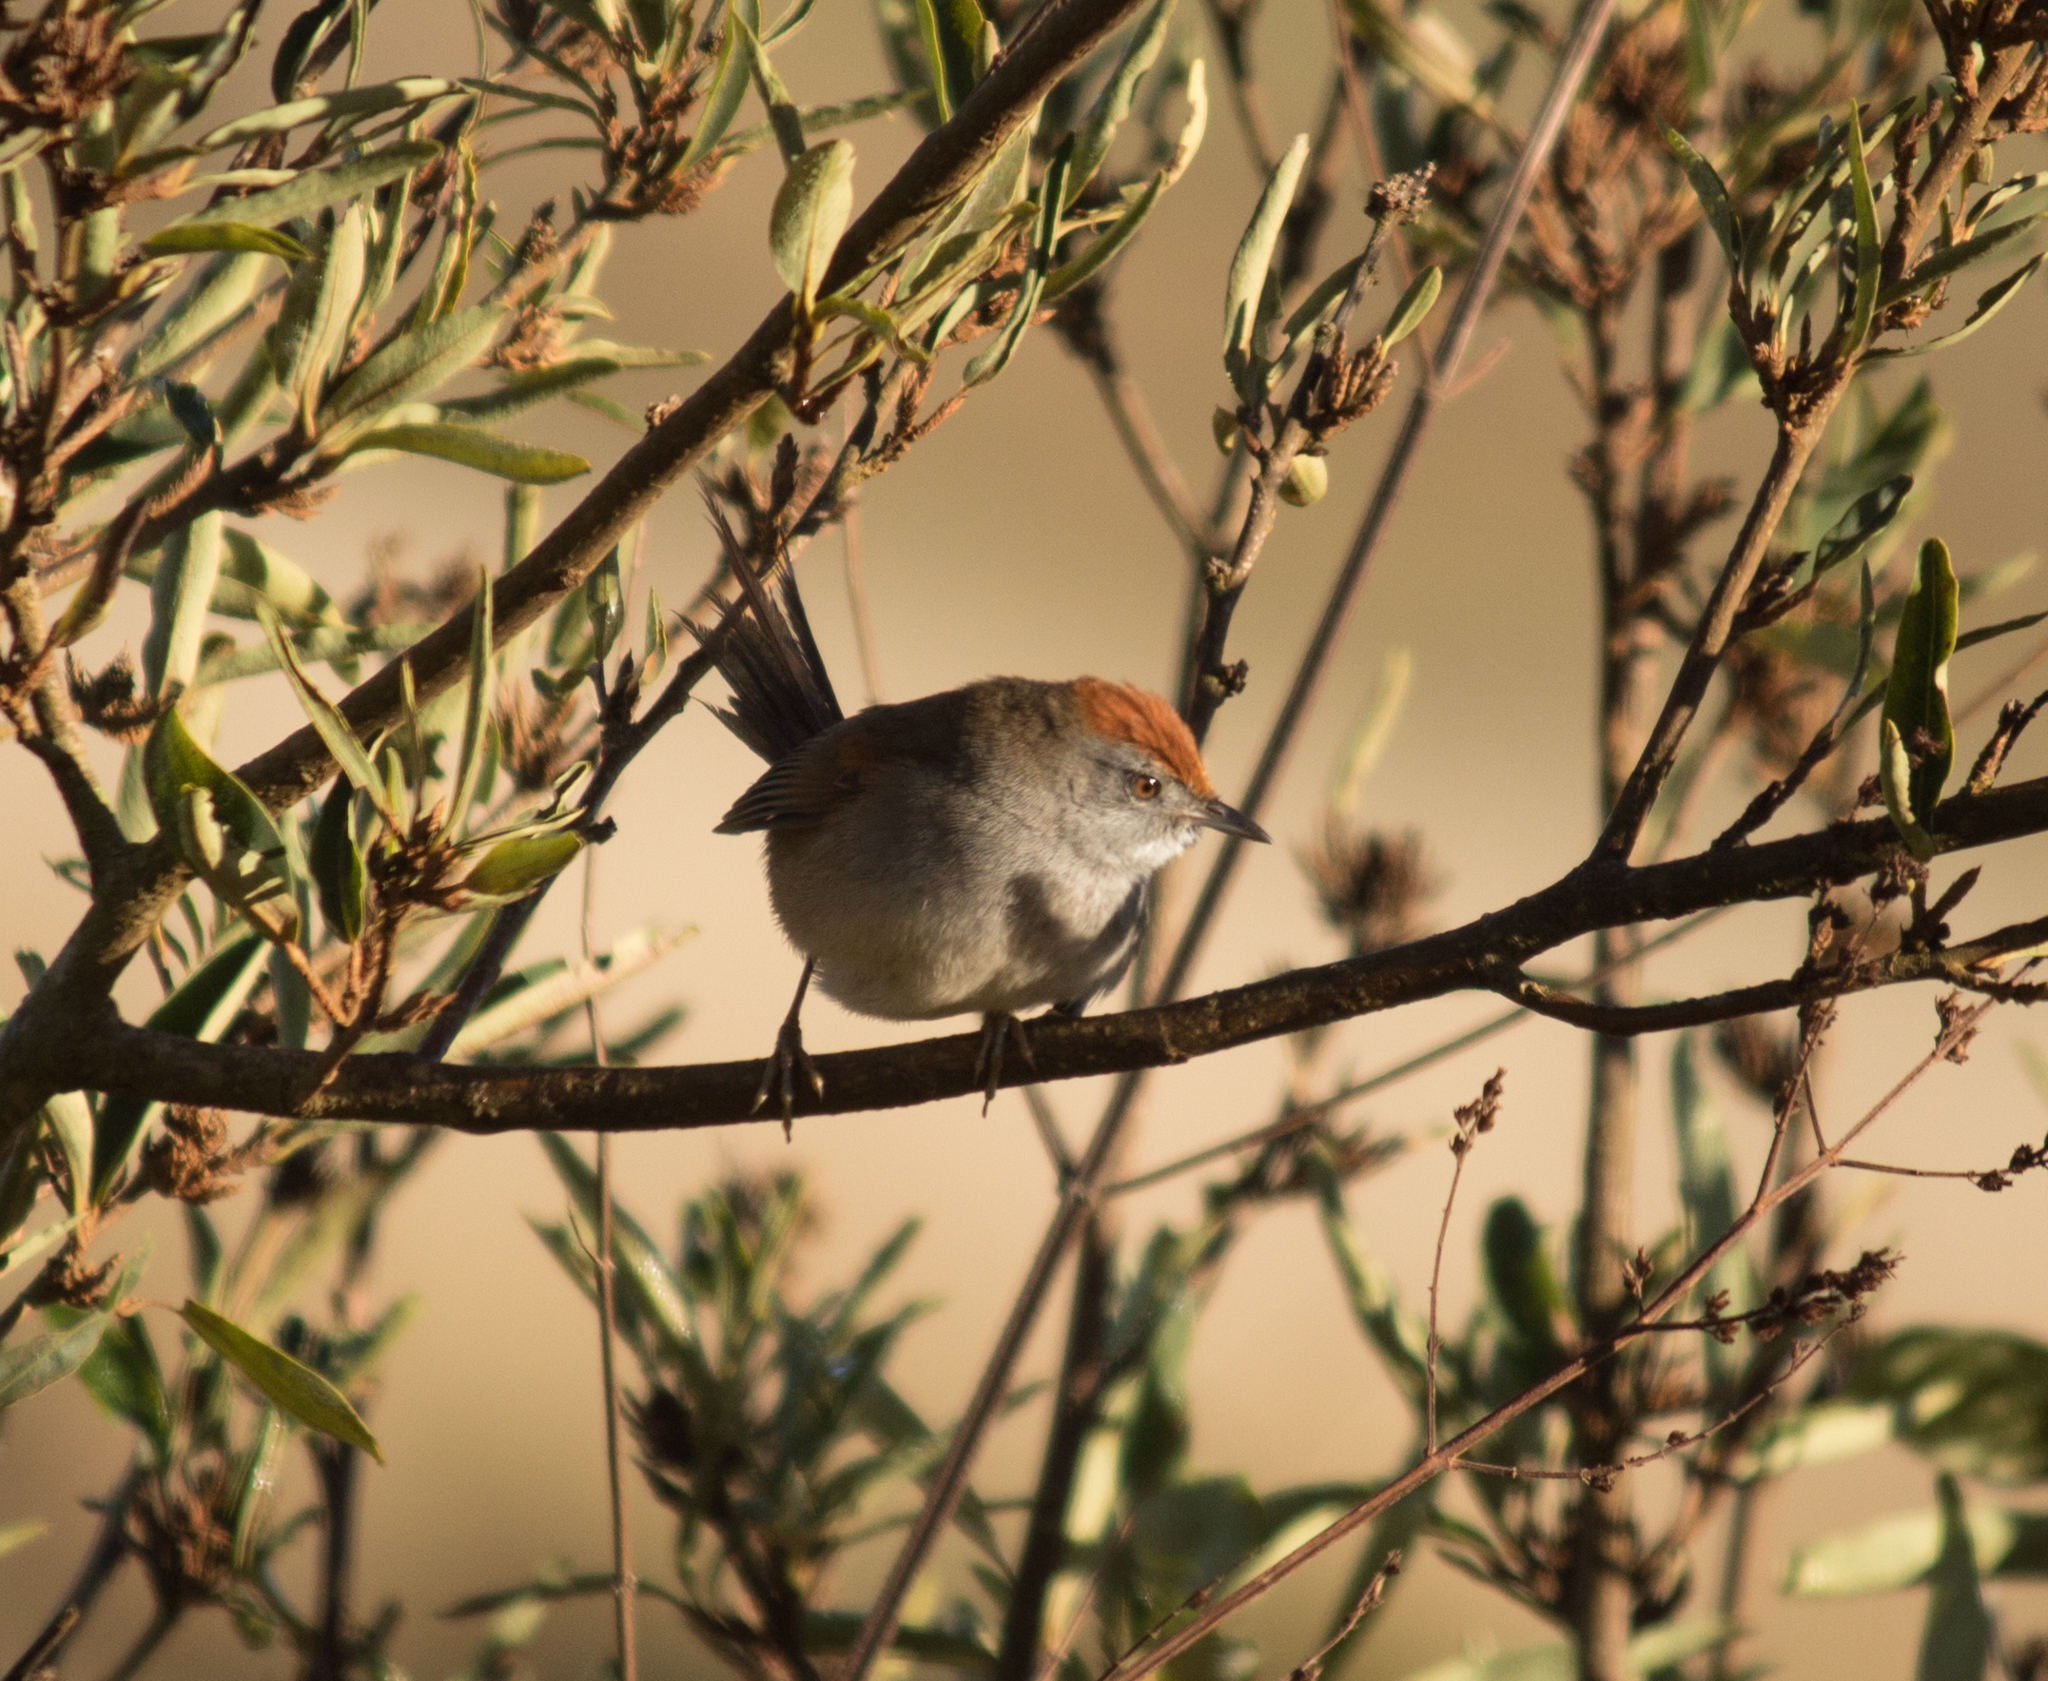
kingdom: Animalia
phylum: Chordata
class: Aves
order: Passeriformes
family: Furnariidae
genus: Synallaxis
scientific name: Synallaxis spixi
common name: Spix's spinetail
